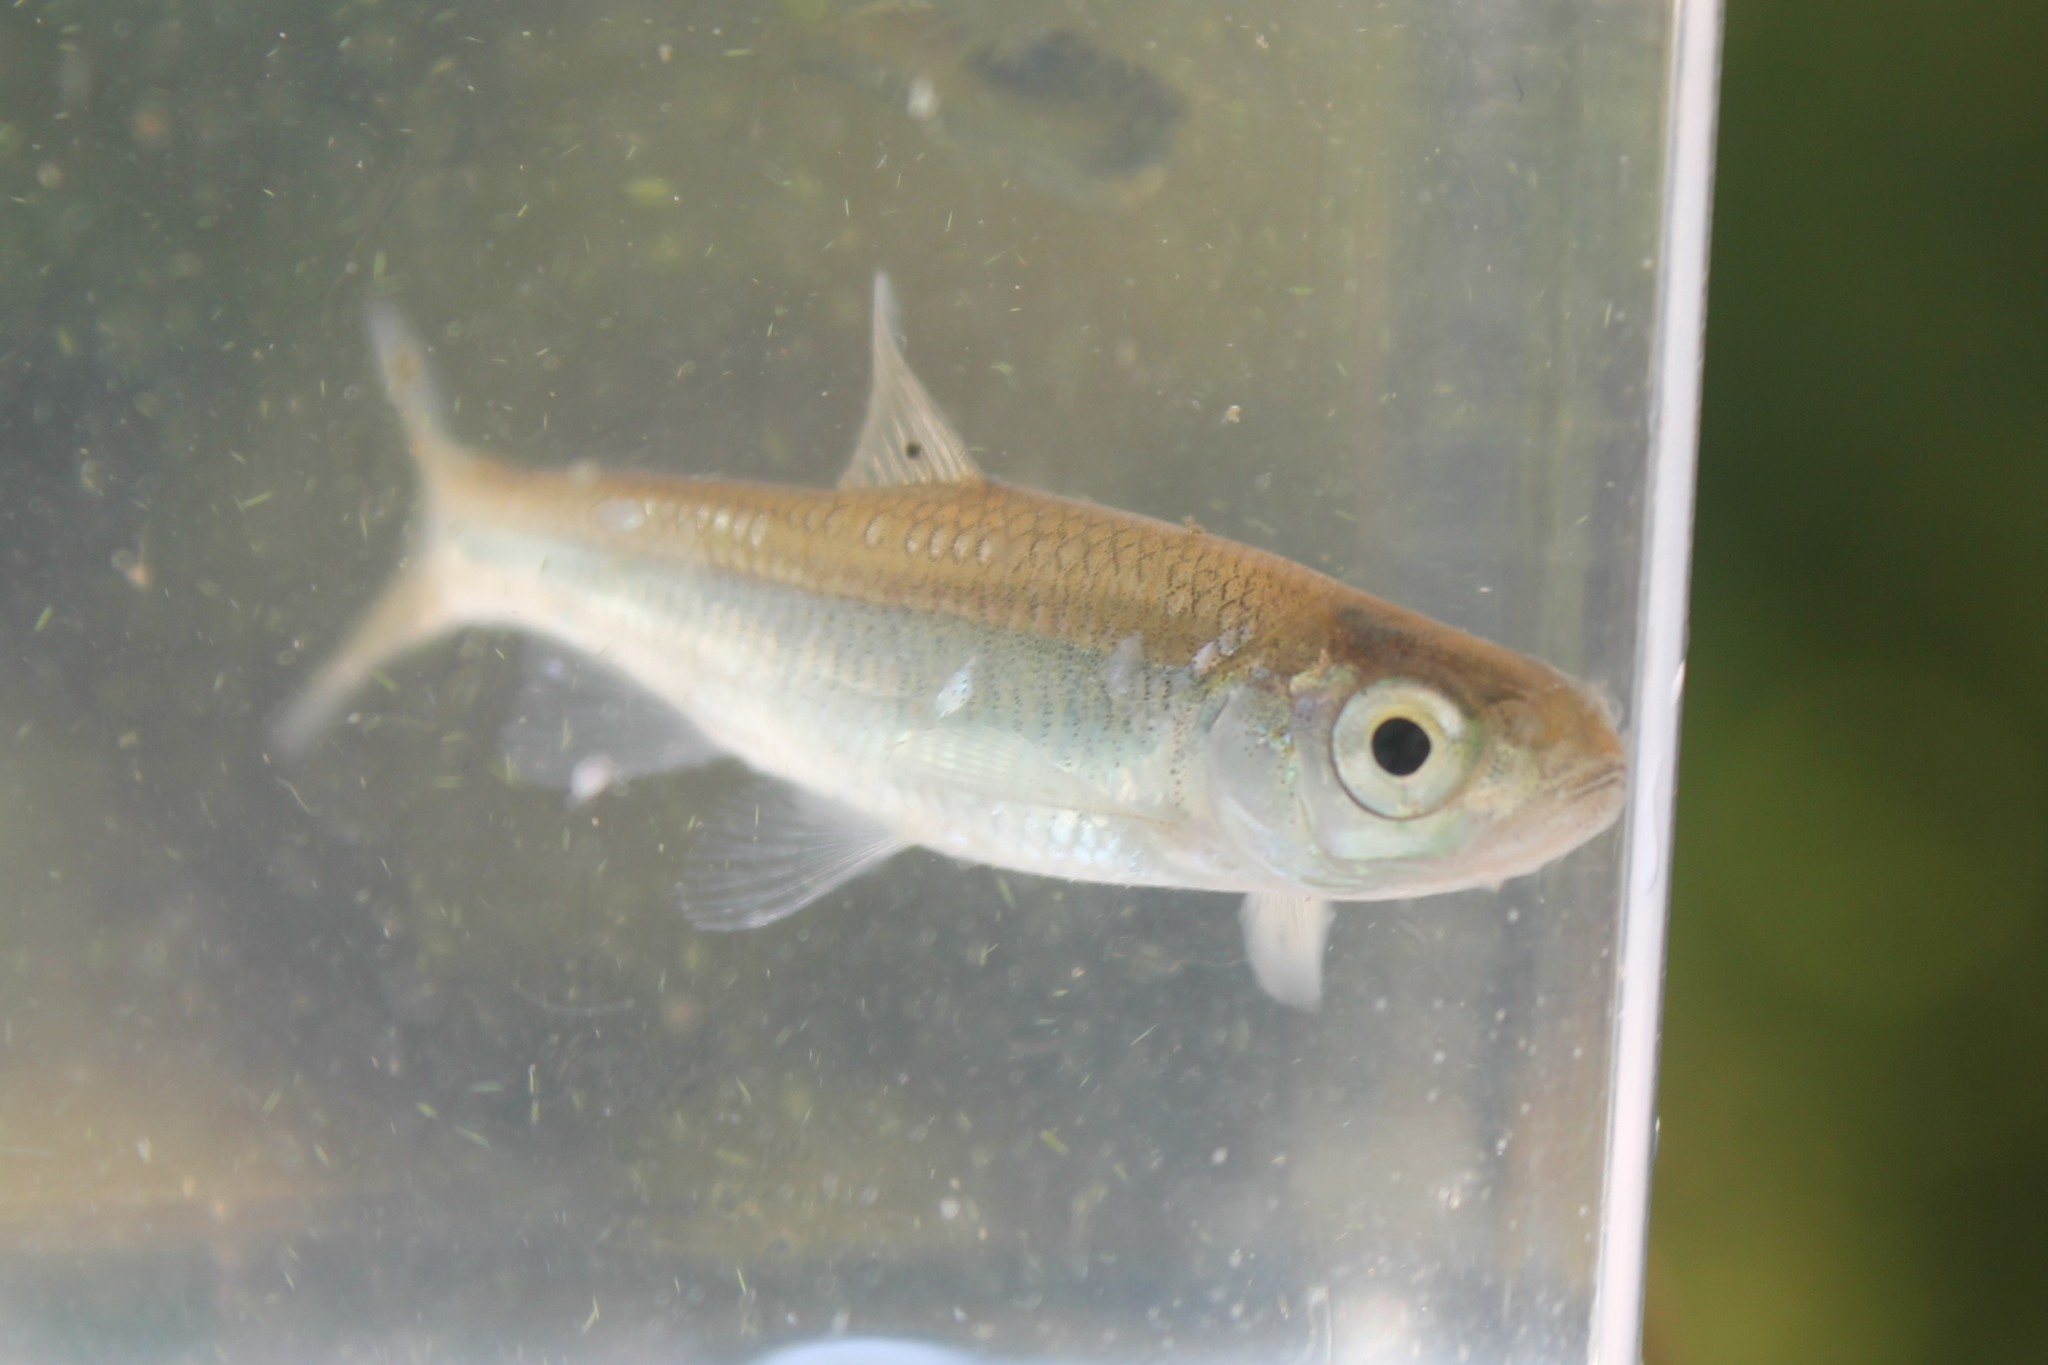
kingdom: Animalia
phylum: Chordata
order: Cypriniformes
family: Cyprinidae
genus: Luxilus
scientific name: Luxilus chrysocephalus
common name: Striped shiner
